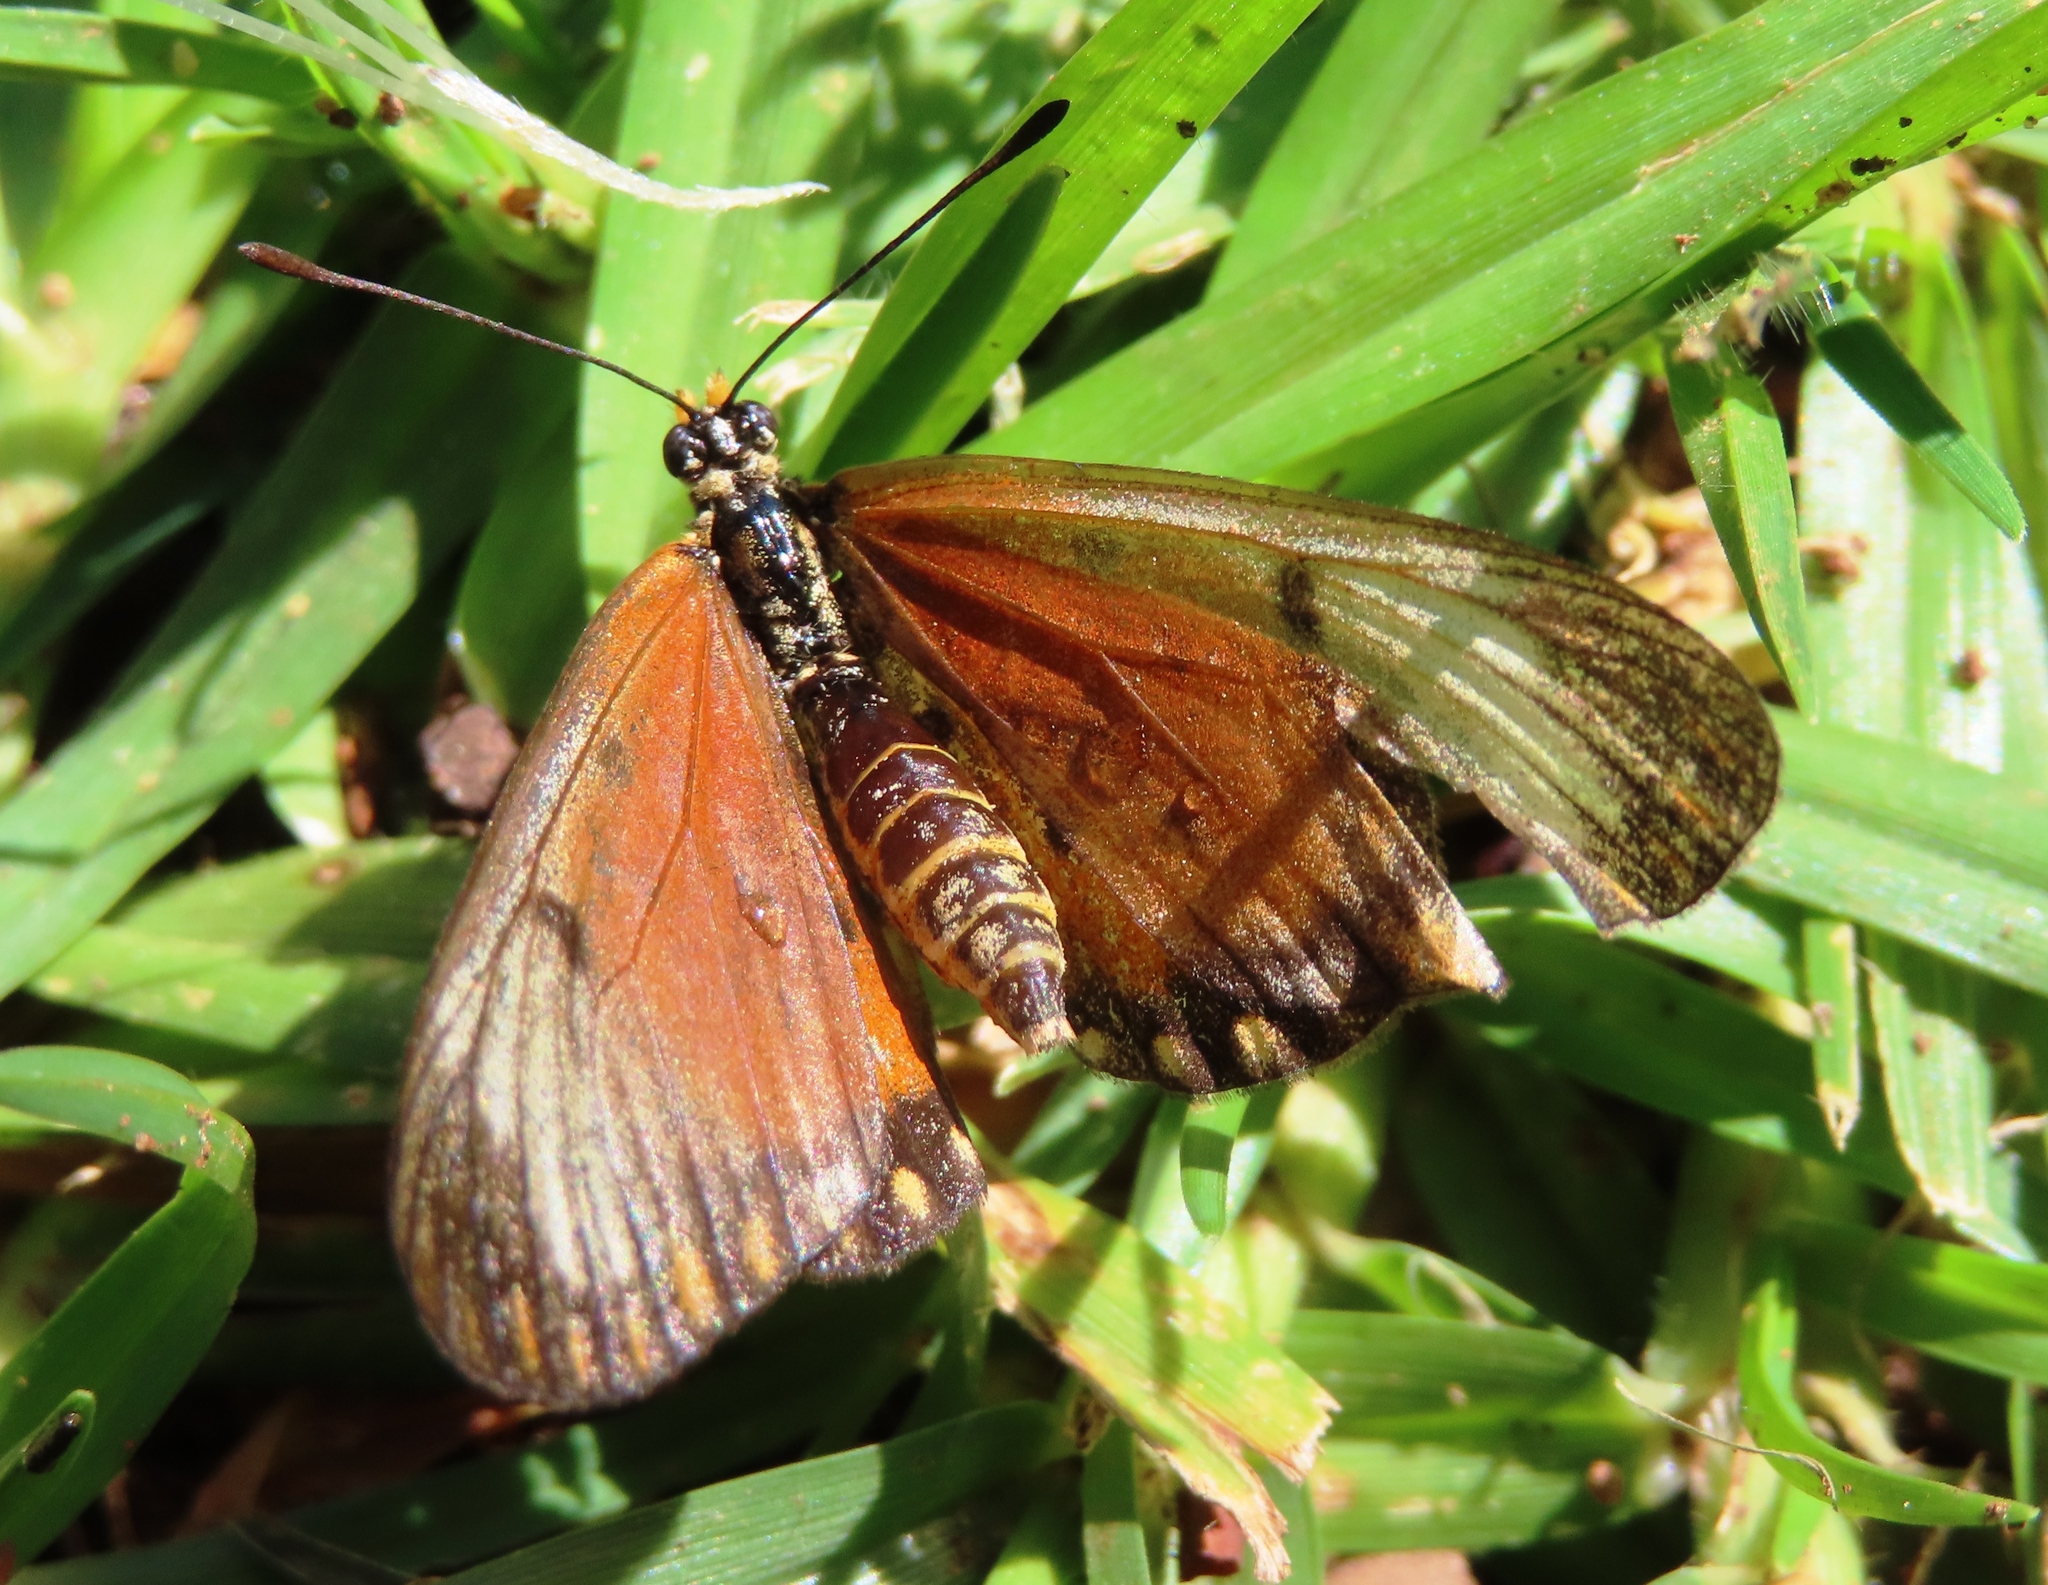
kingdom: Animalia
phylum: Arthropoda
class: Insecta
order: Lepidoptera
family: Nymphalidae
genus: Acraea
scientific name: Acraea Telchinia serena
